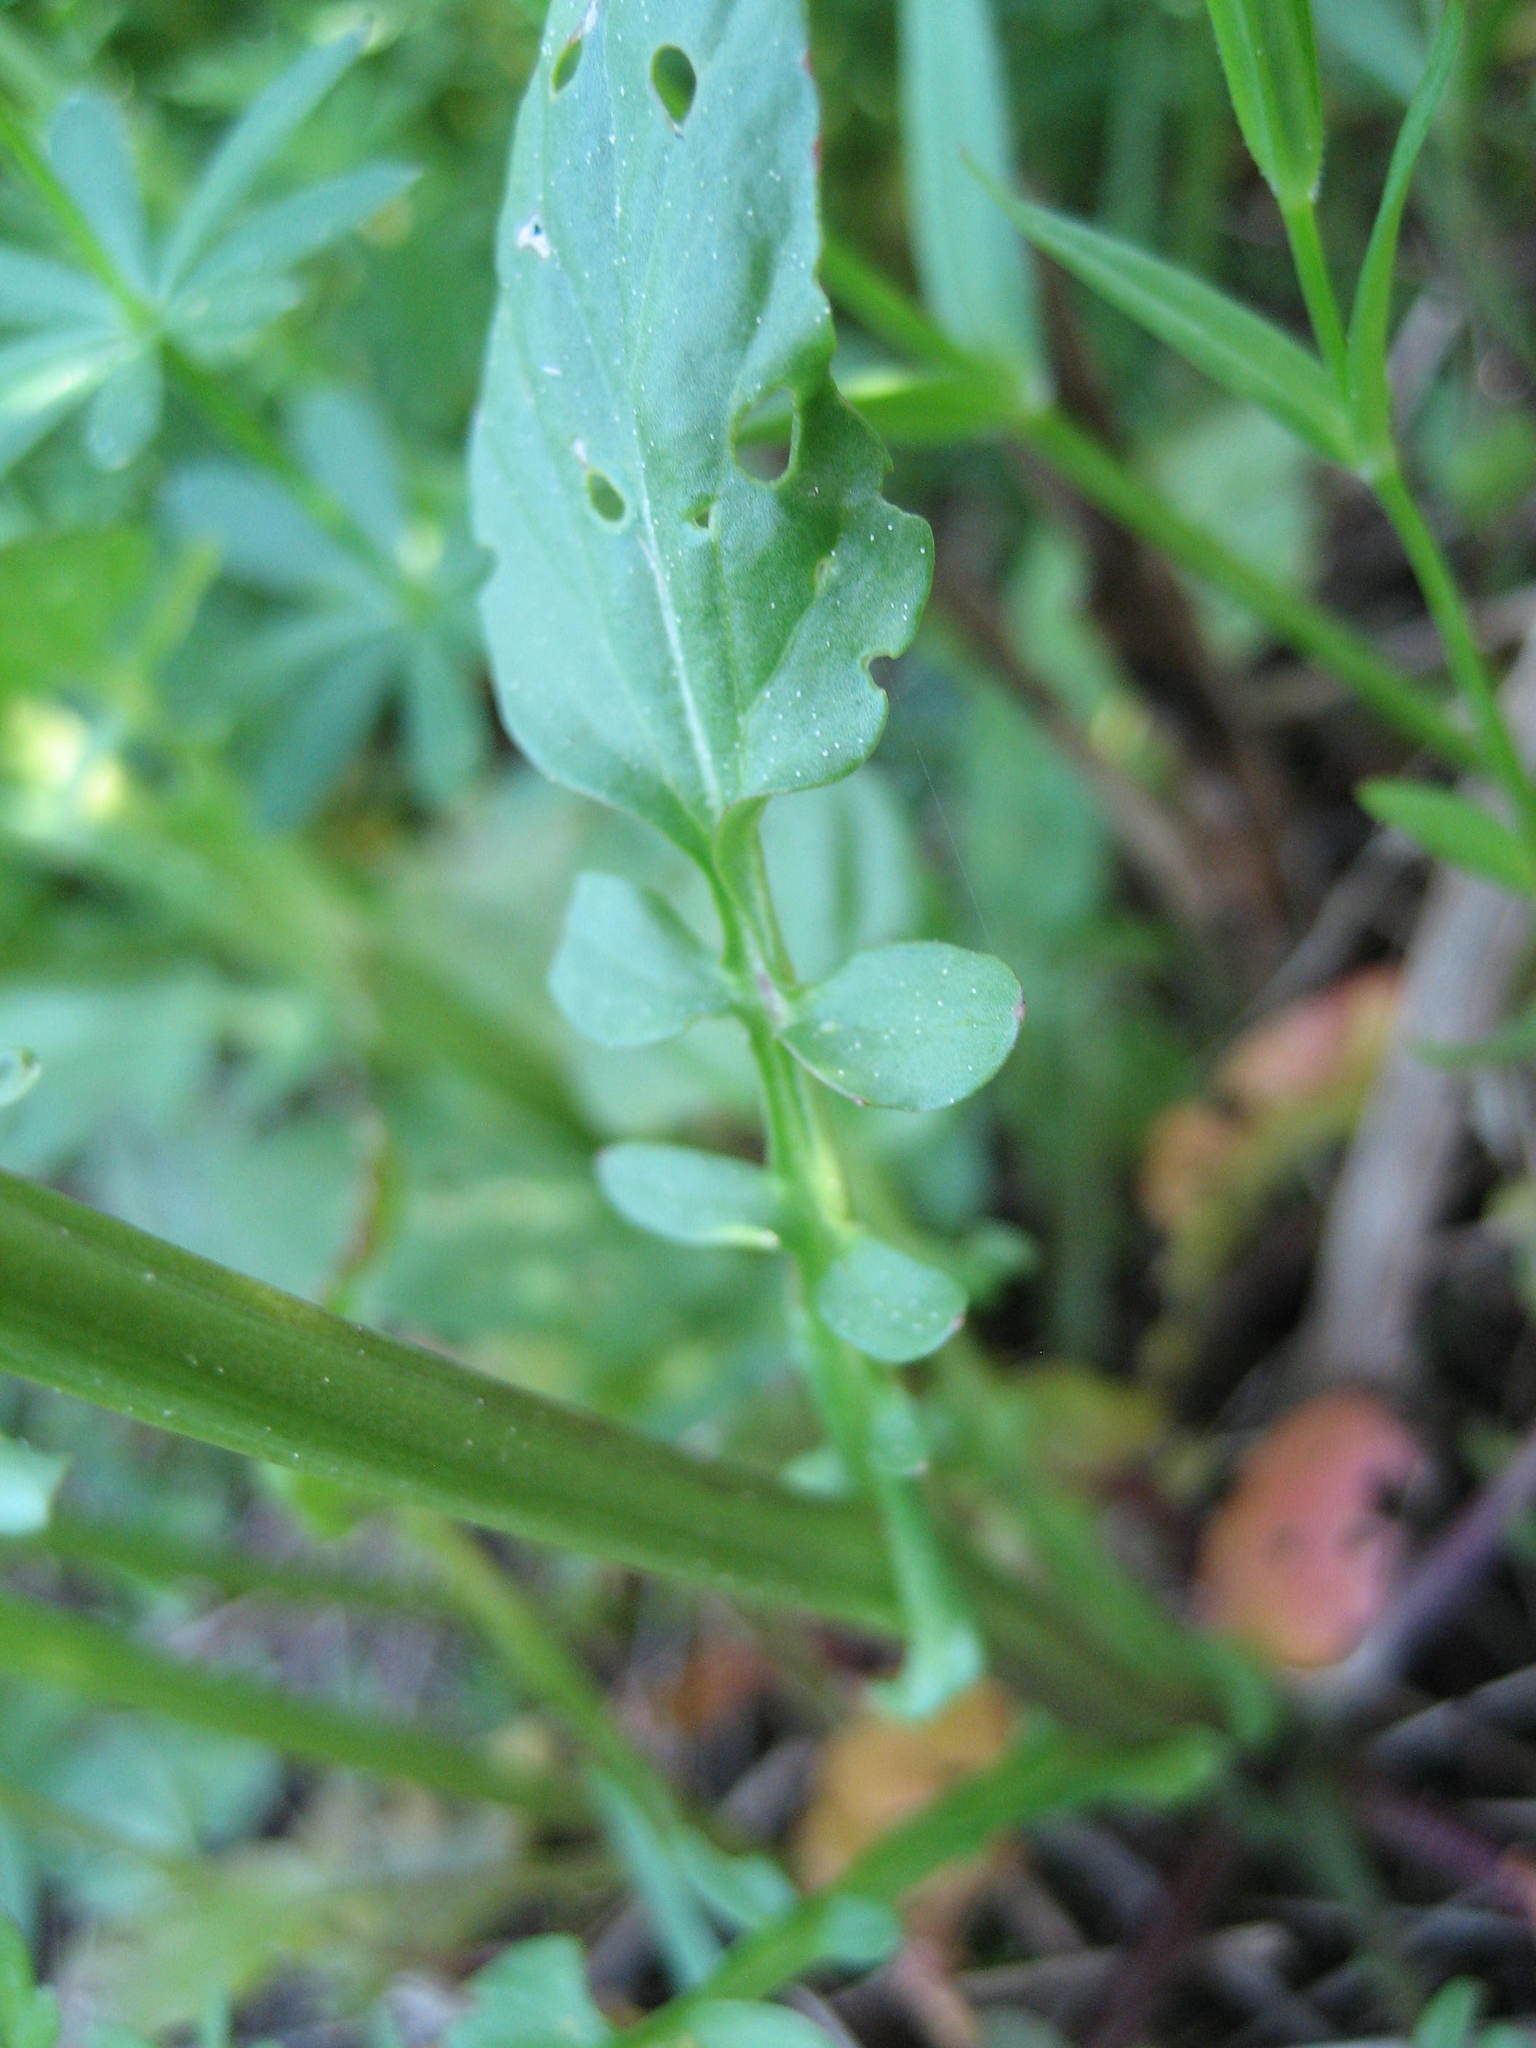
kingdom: Plantae
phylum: Tracheophyta
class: Magnoliopsida
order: Brassicales
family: Brassicaceae
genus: Barbarea
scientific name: Barbarea vulgaris
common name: Cressy-greens
